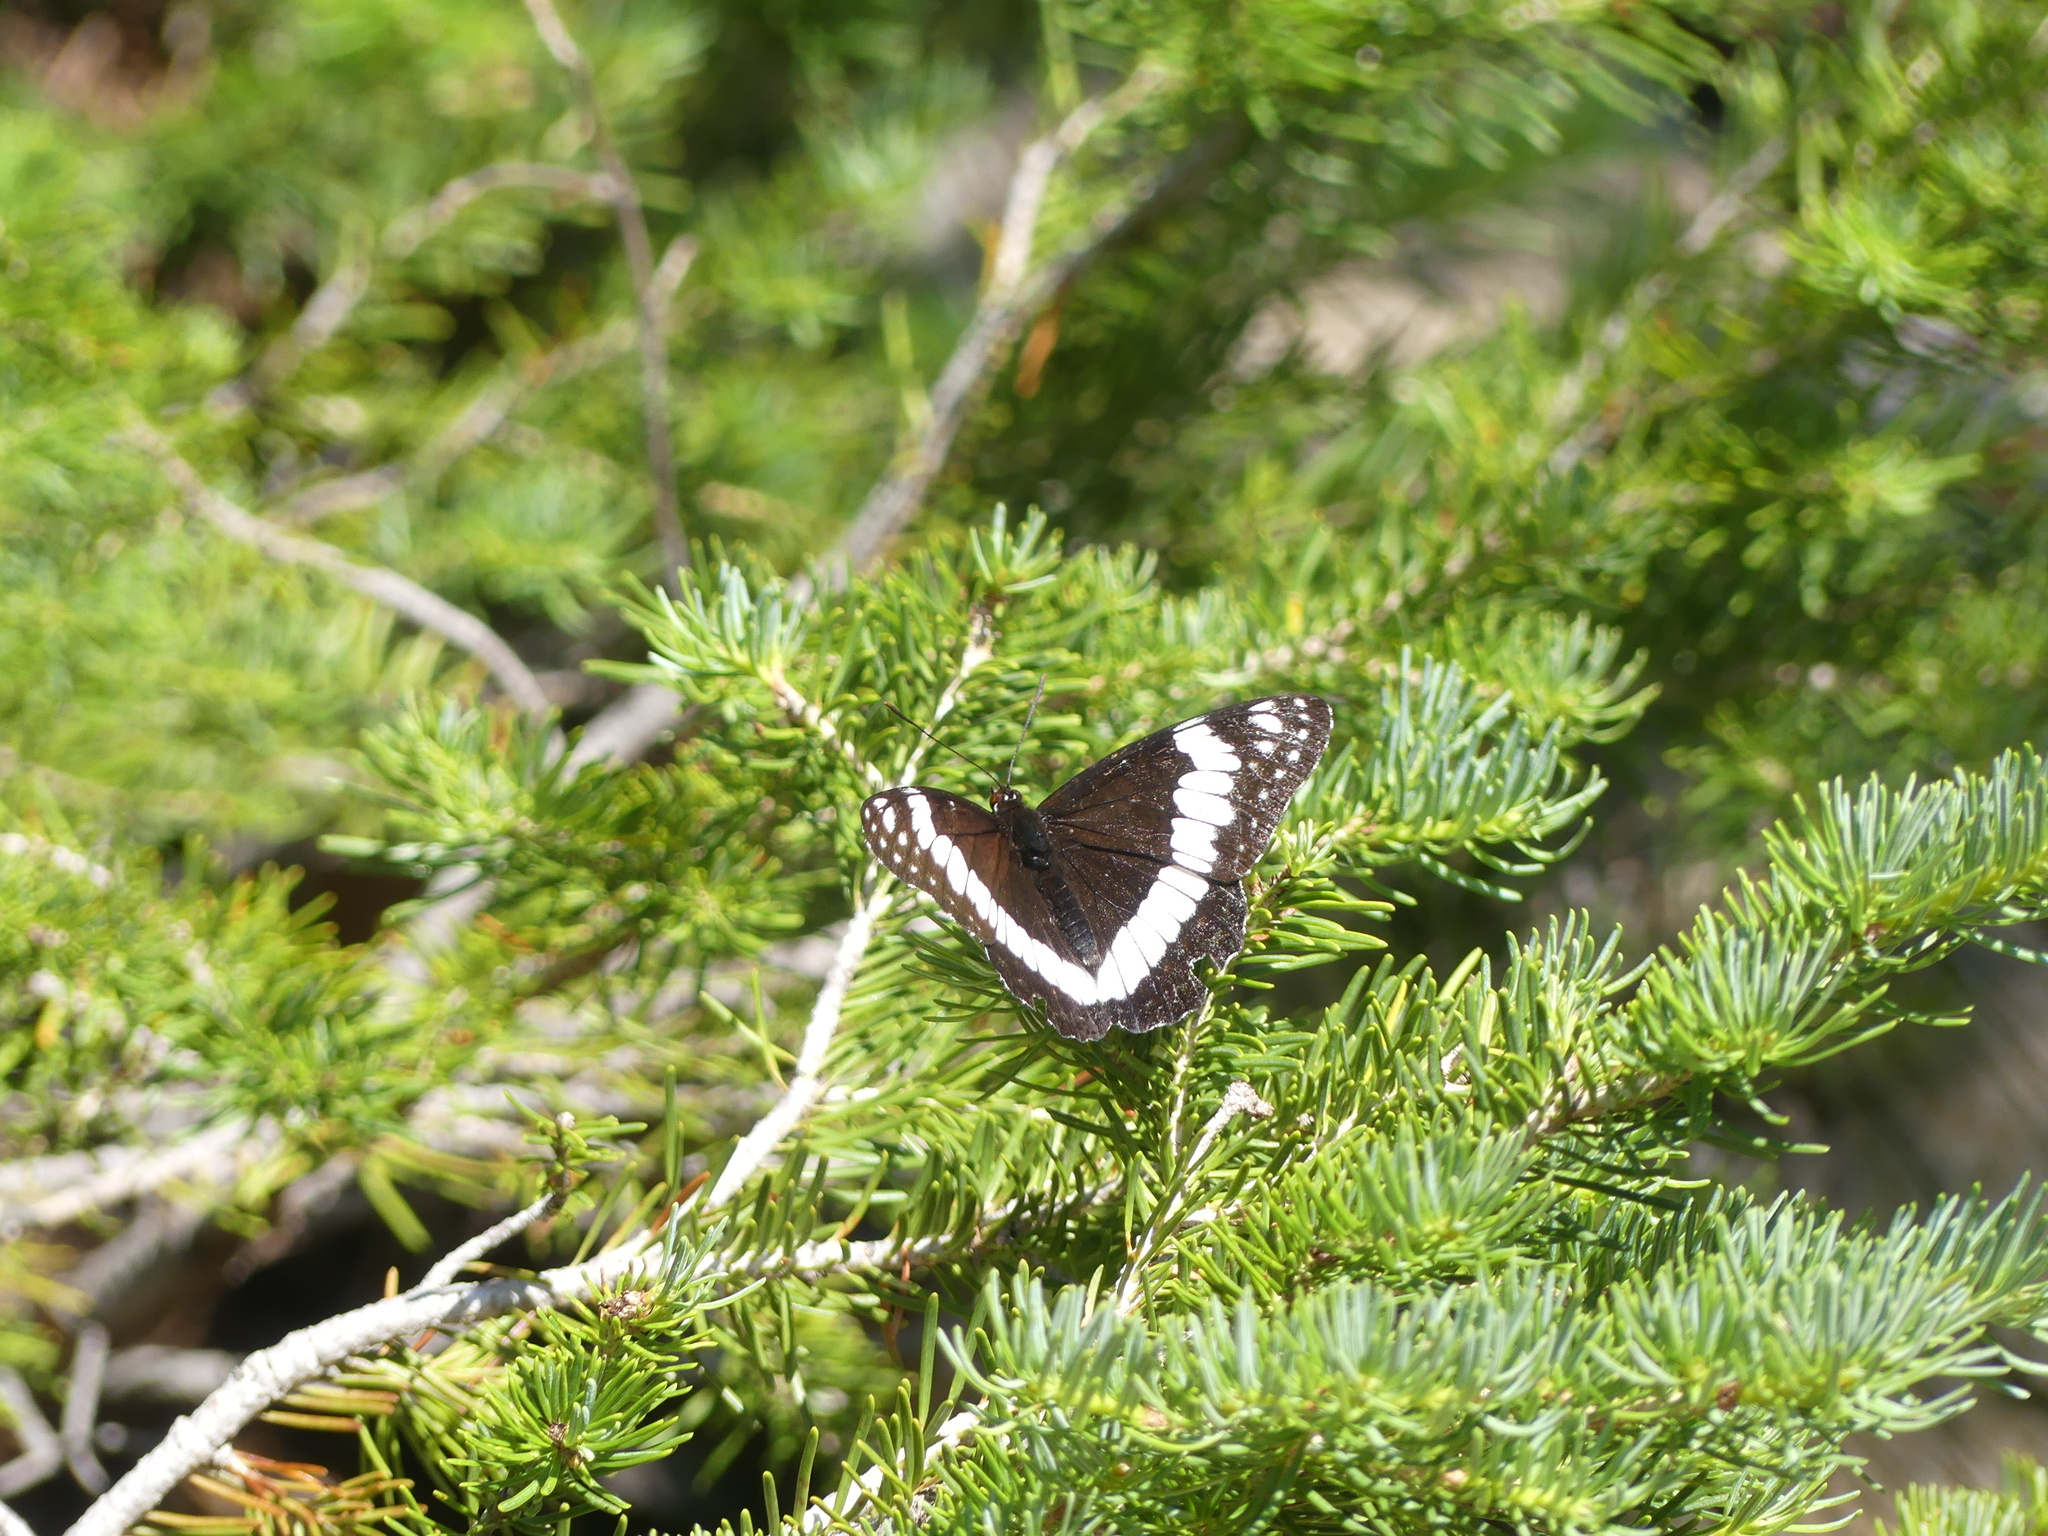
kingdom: Animalia
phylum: Arthropoda
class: Insecta
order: Lepidoptera
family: Nymphalidae
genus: Limenitis
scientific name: Limenitis weidemeyerii
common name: Weidemeyer's admiral
